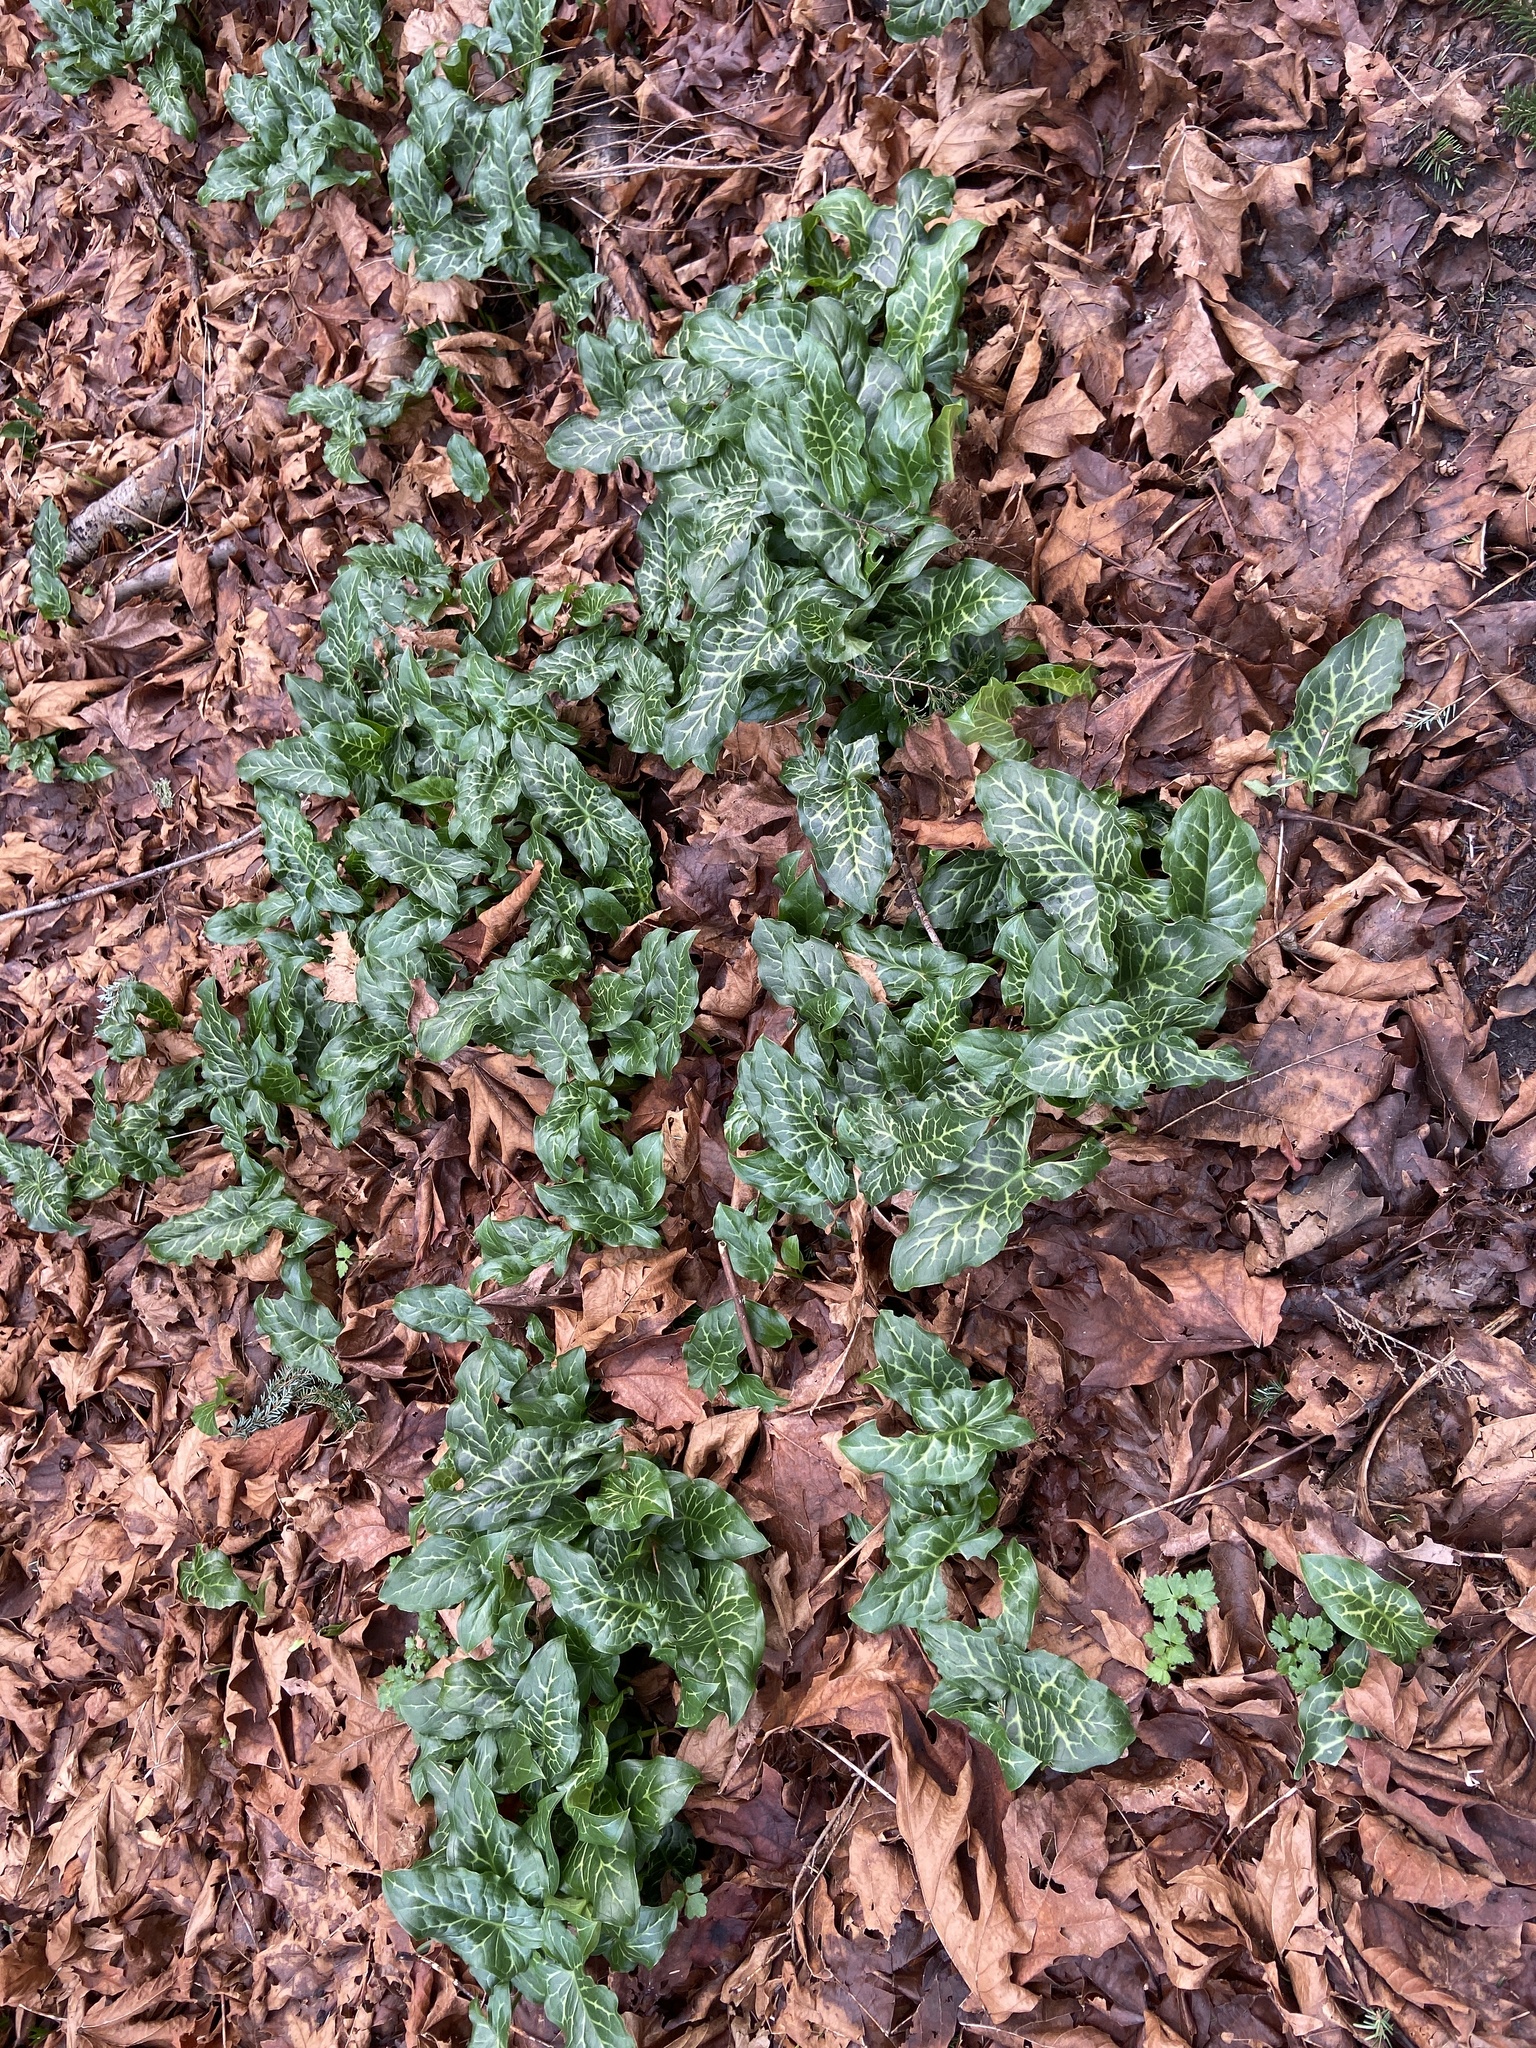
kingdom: Plantae
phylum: Tracheophyta
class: Liliopsida
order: Alismatales
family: Araceae
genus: Arum
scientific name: Arum italicum
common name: Italian lords-and-ladies
